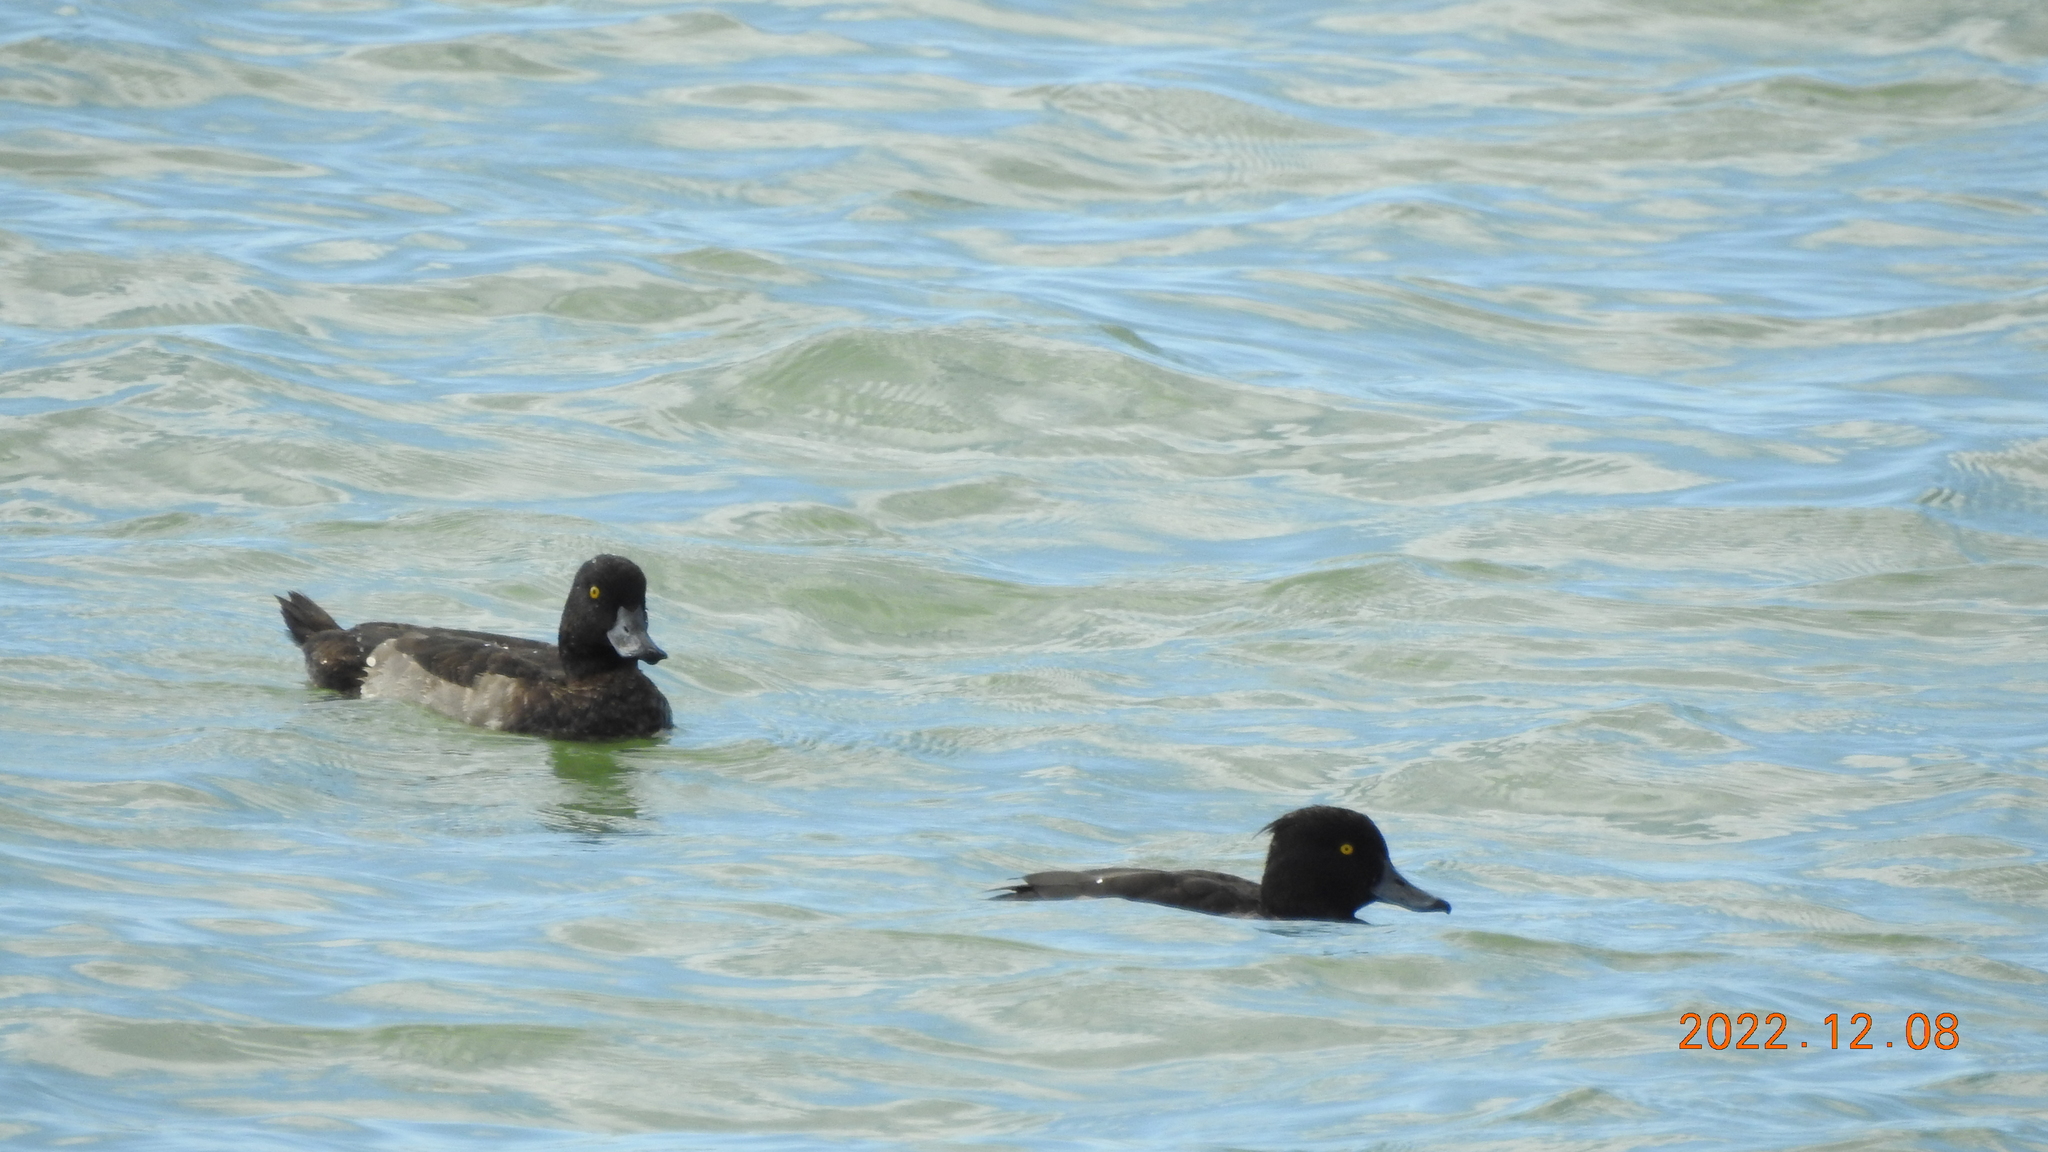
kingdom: Animalia
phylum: Chordata
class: Aves
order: Anseriformes
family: Anatidae
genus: Aythya
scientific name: Aythya fuligula
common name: Tufted duck
